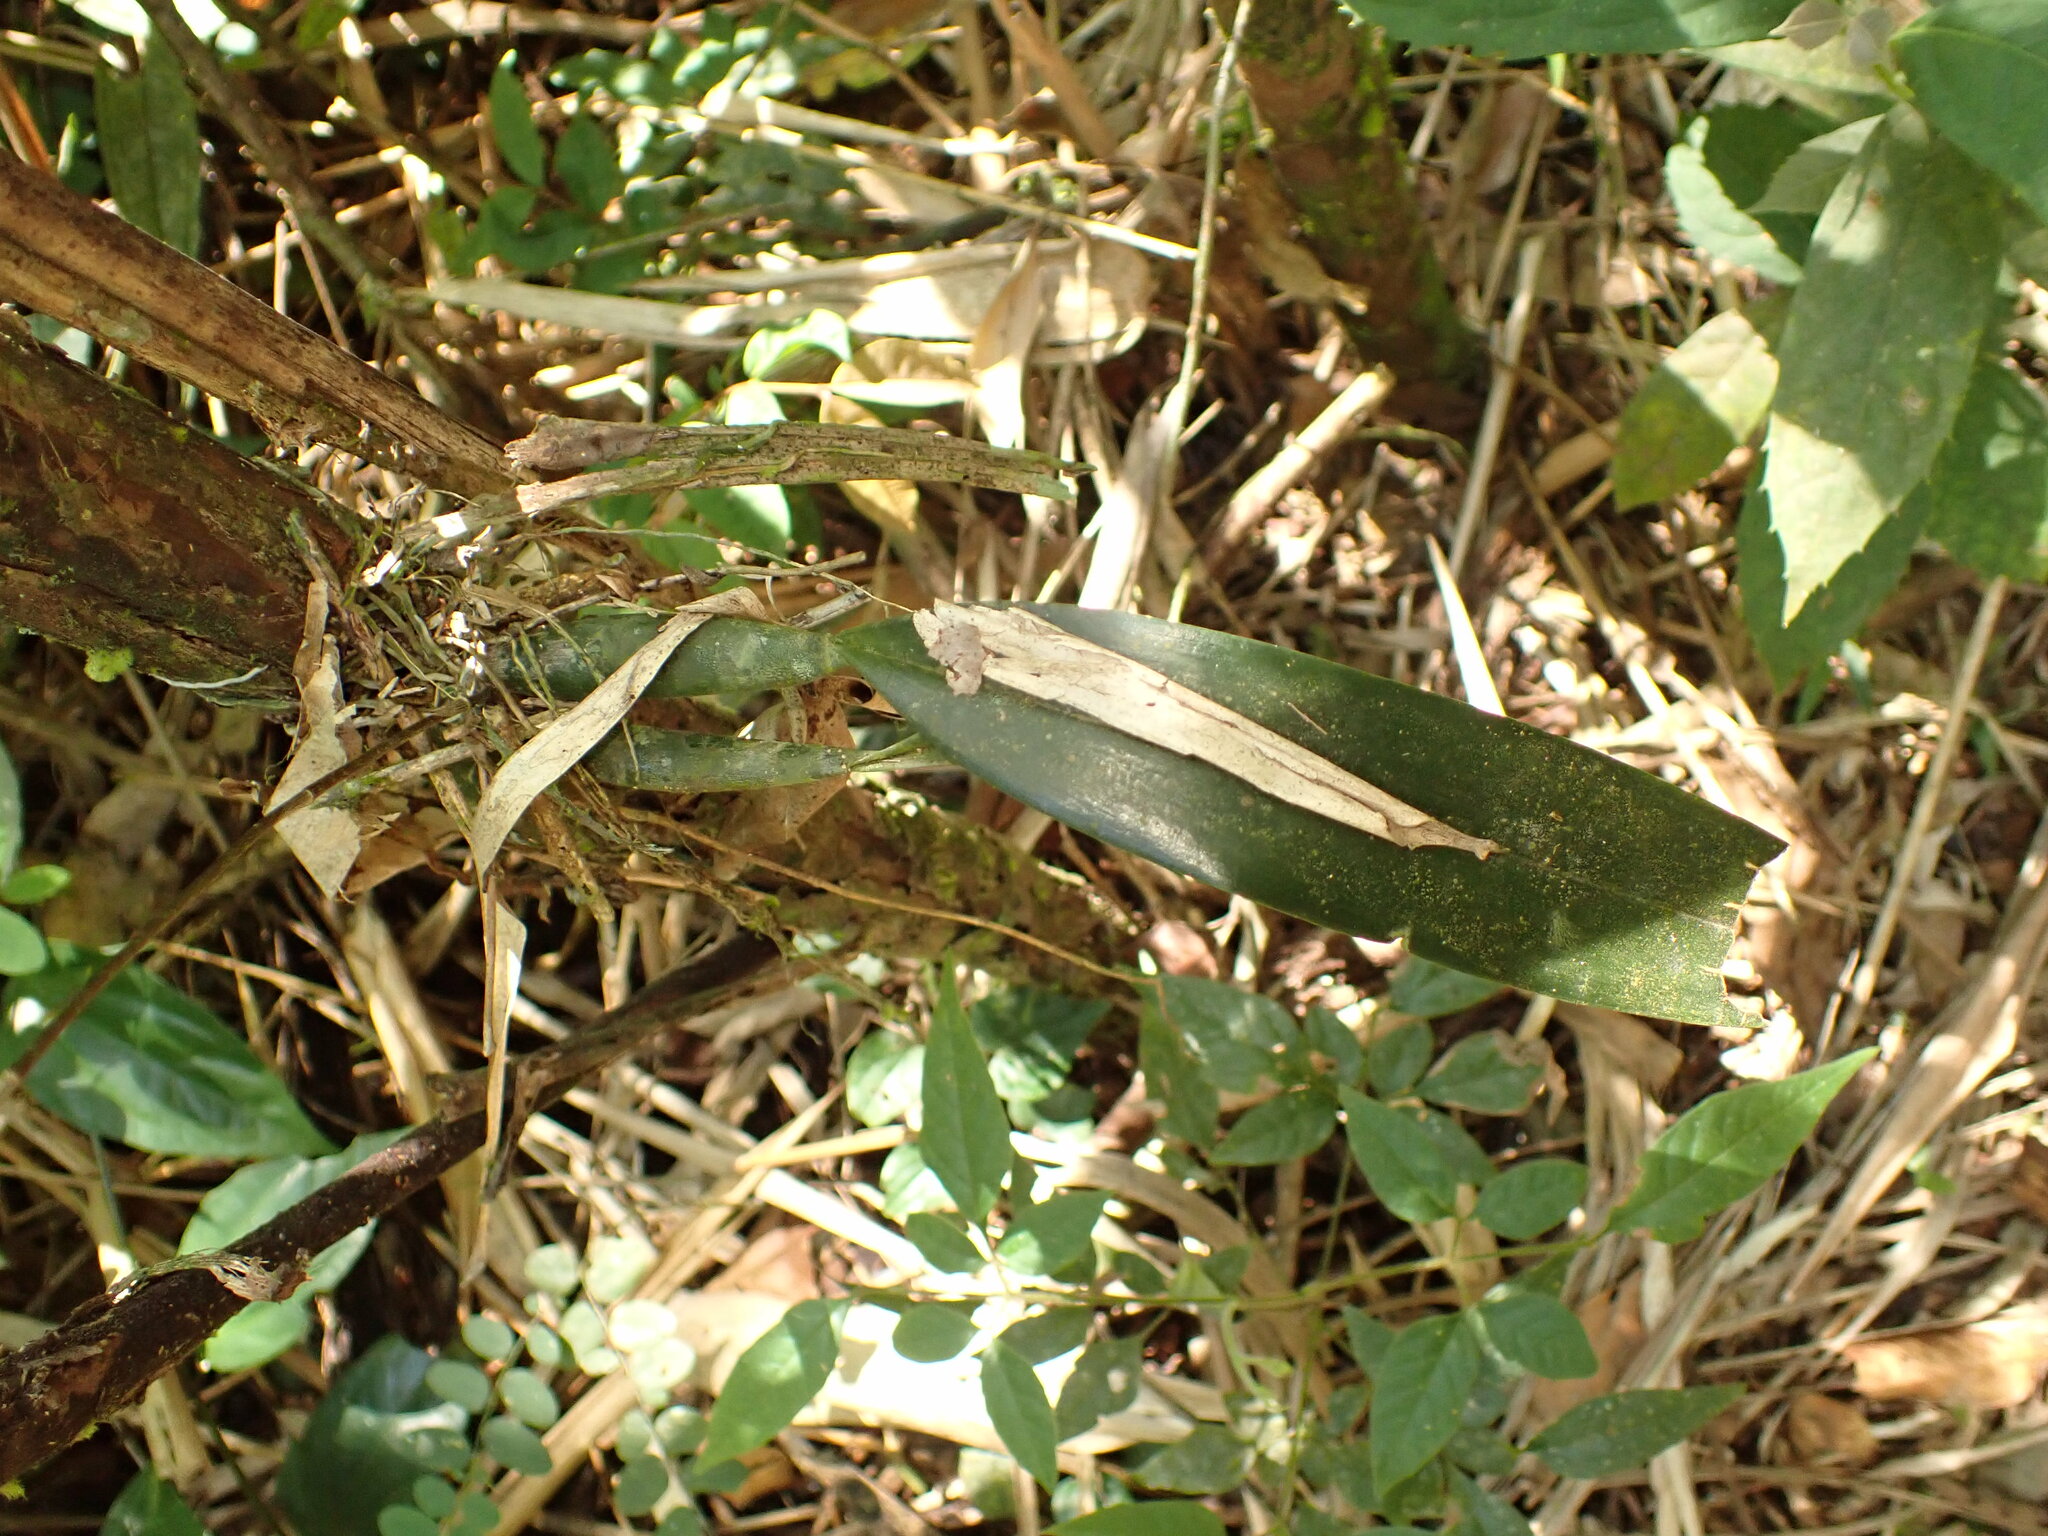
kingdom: Plantae
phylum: Tracheophyta
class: Liliopsida
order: Asparagales
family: Orchidaceae
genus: Gomesa
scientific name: Gomesa bicornuta
